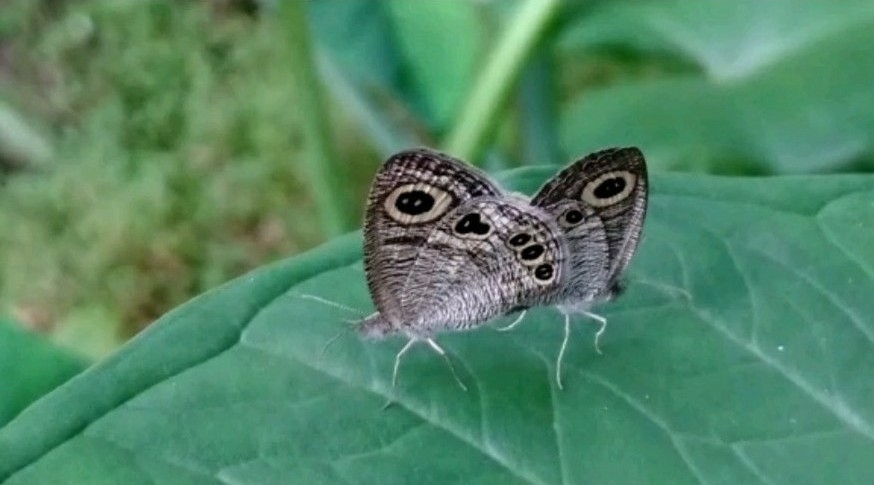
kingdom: Animalia
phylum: Arthropoda
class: Insecta
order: Lepidoptera
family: Nymphalidae
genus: Ypthima
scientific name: Ypthima huebneri
